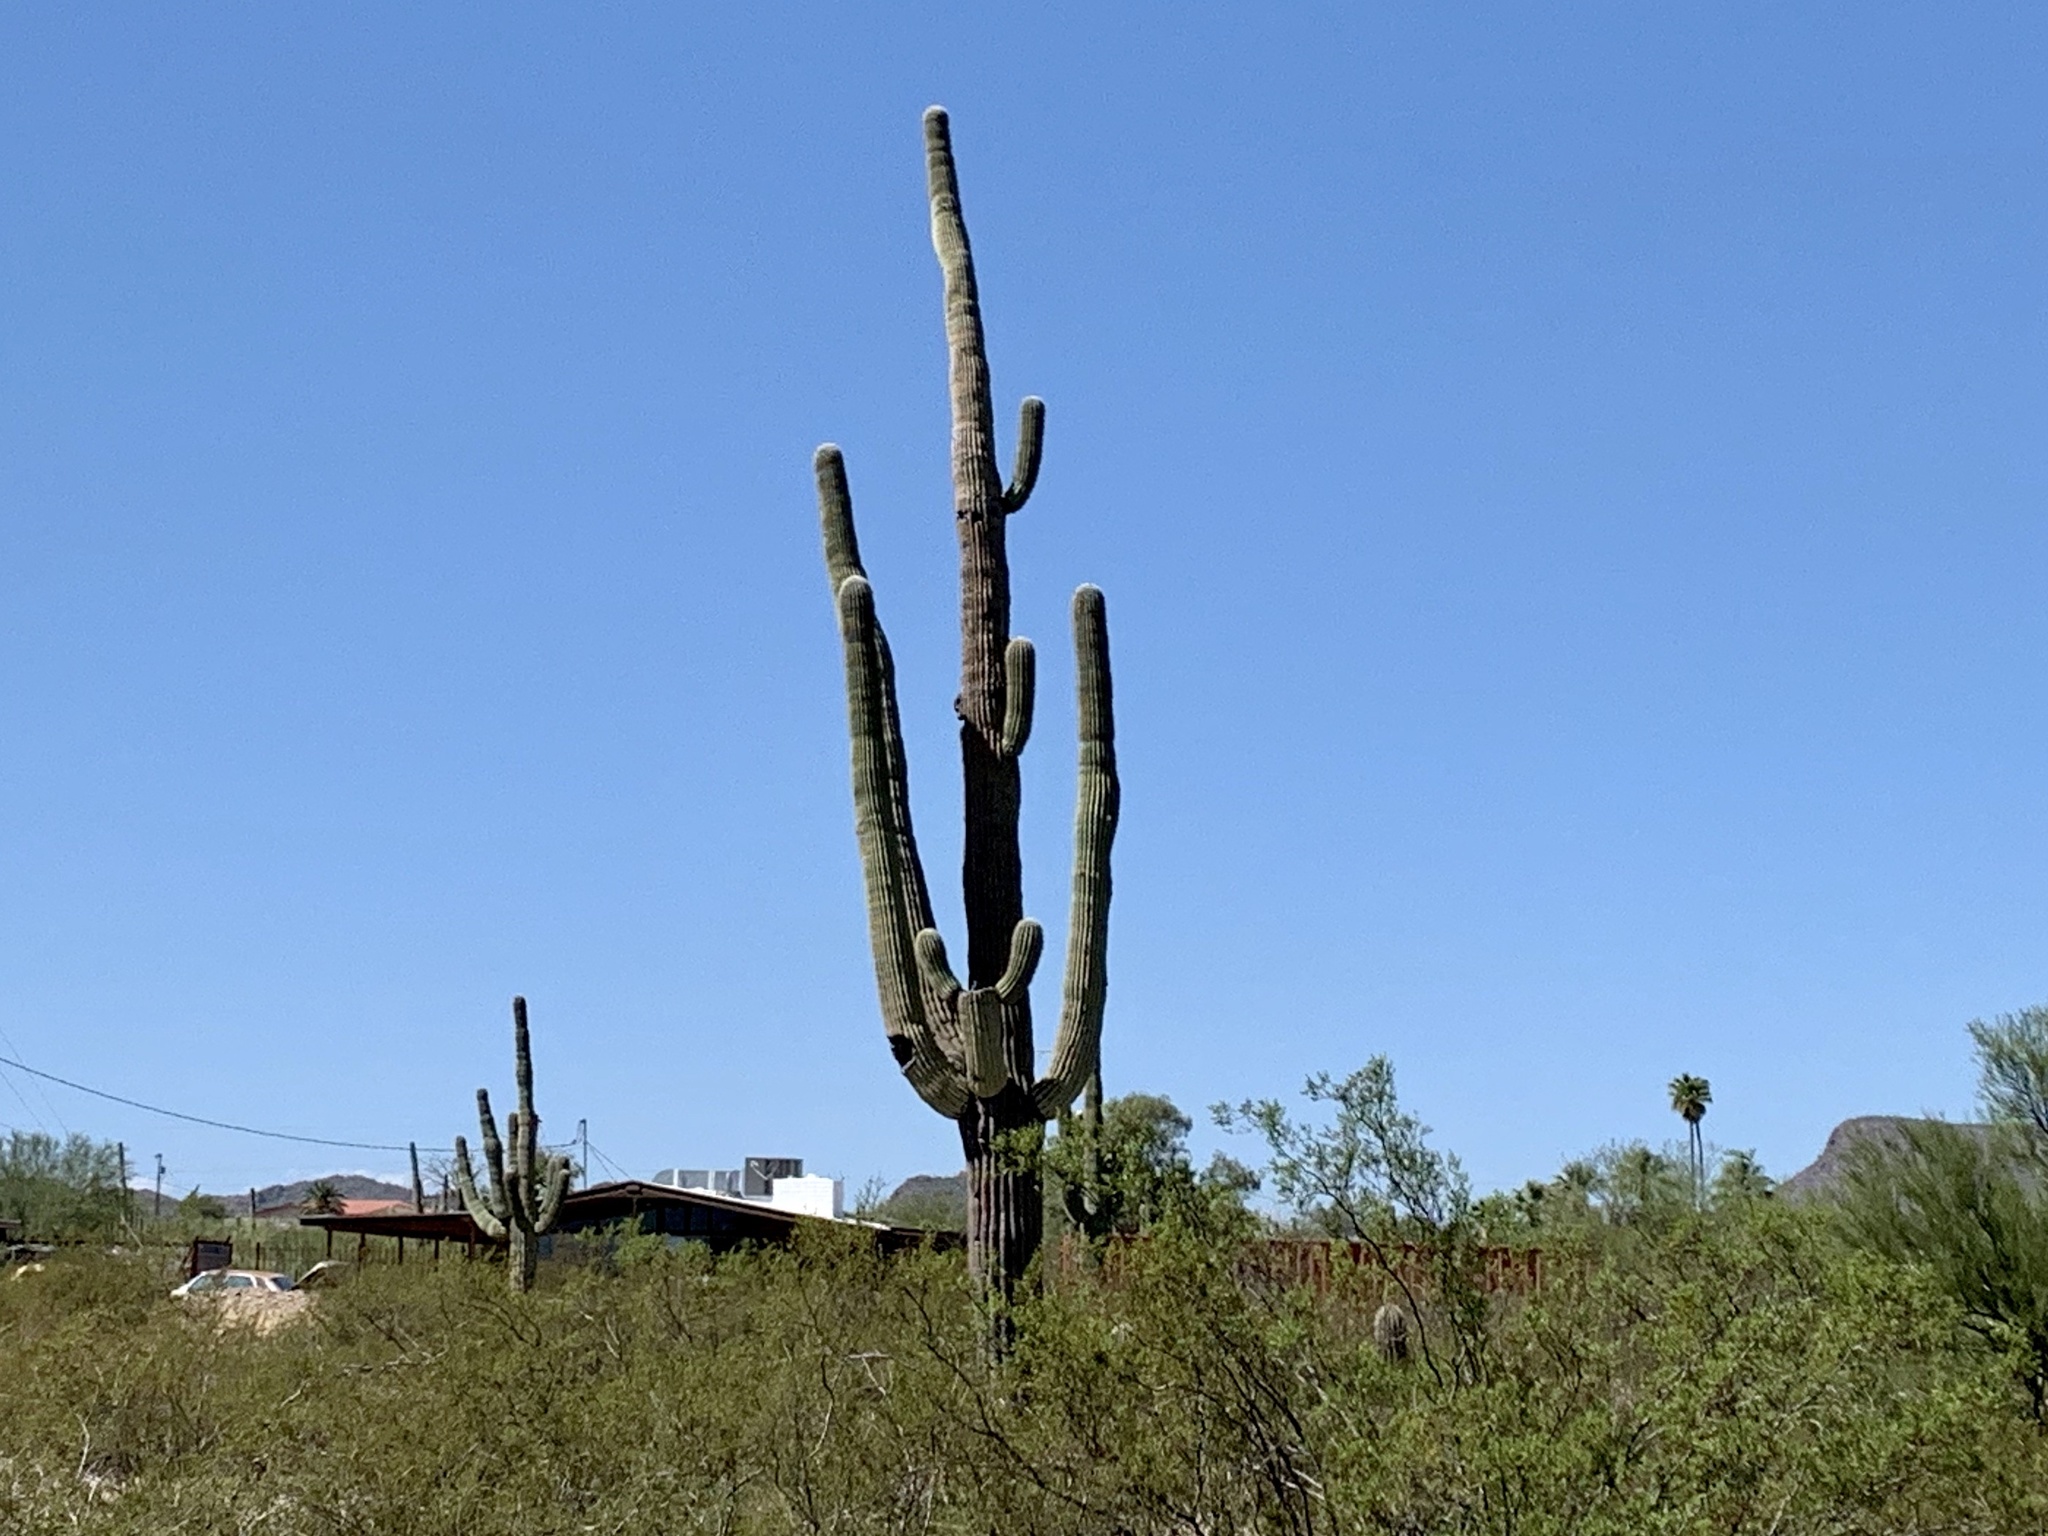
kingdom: Plantae
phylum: Tracheophyta
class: Magnoliopsida
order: Caryophyllales
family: Cactaceae
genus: Carnegiea
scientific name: Carnegiea gigantea
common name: Saguaro
